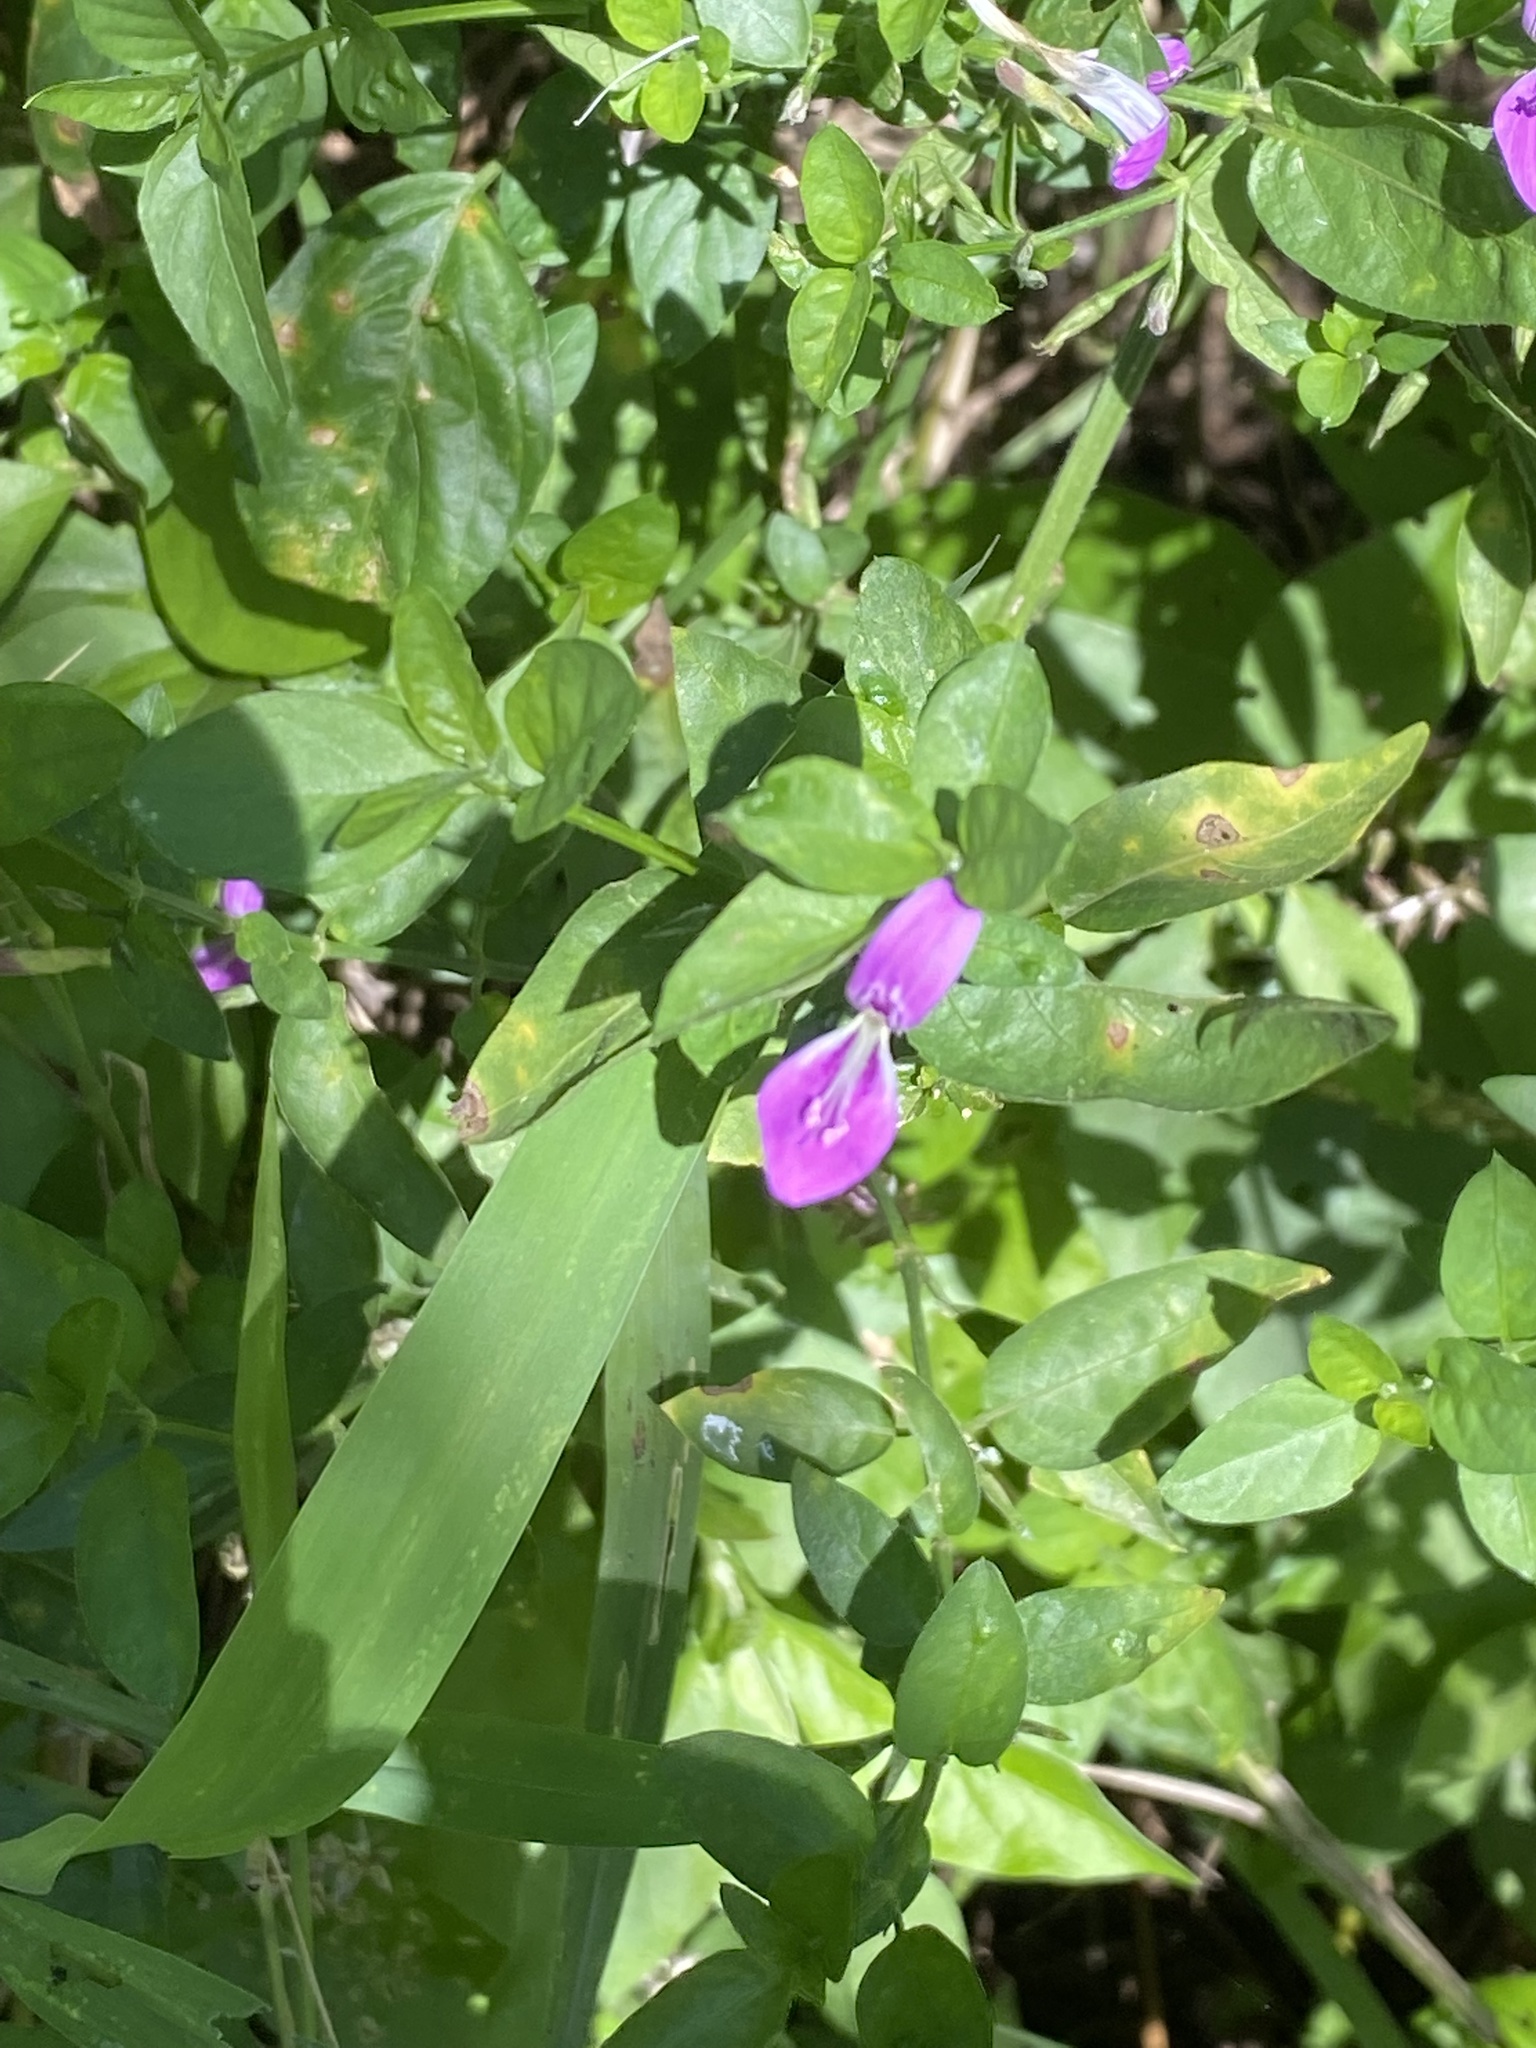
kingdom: Plantae
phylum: Tracheophyta
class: Magnoliopsida
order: Lamiales
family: Acanthaceae
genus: Dicliptera
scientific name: Dicliptera cernua
